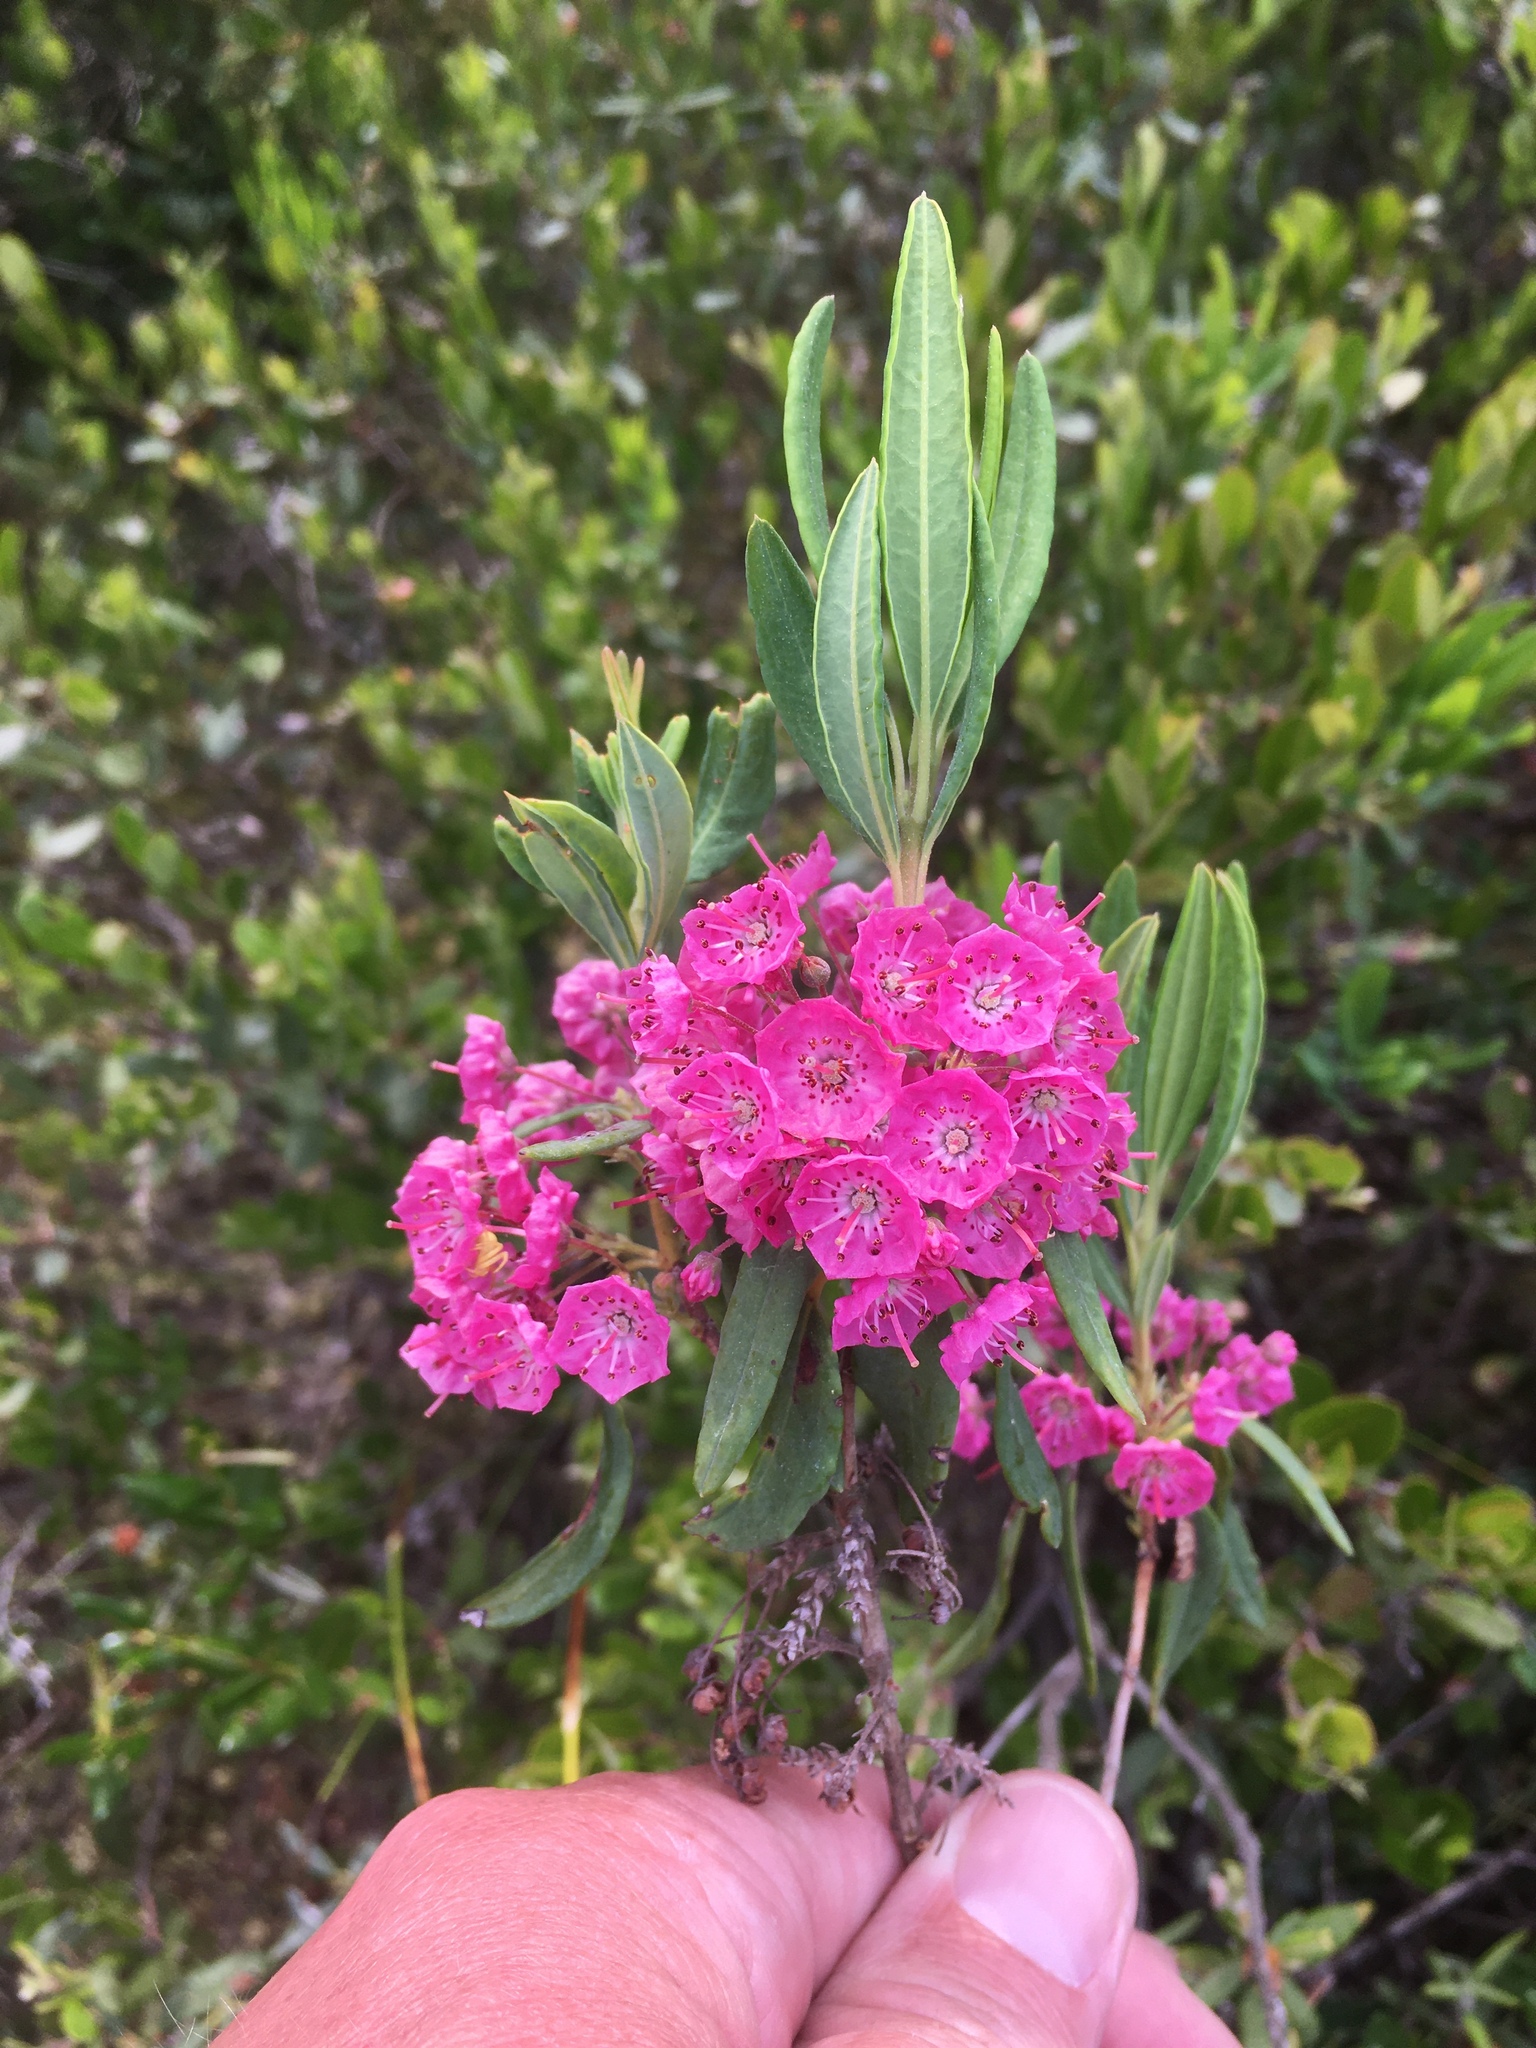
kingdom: Plantae
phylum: Tracheophyta
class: Magnoliopsida
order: Ericales
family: Ericaceae
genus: Kalmia
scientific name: Kalmia angustifolia
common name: Sheep-laurel
